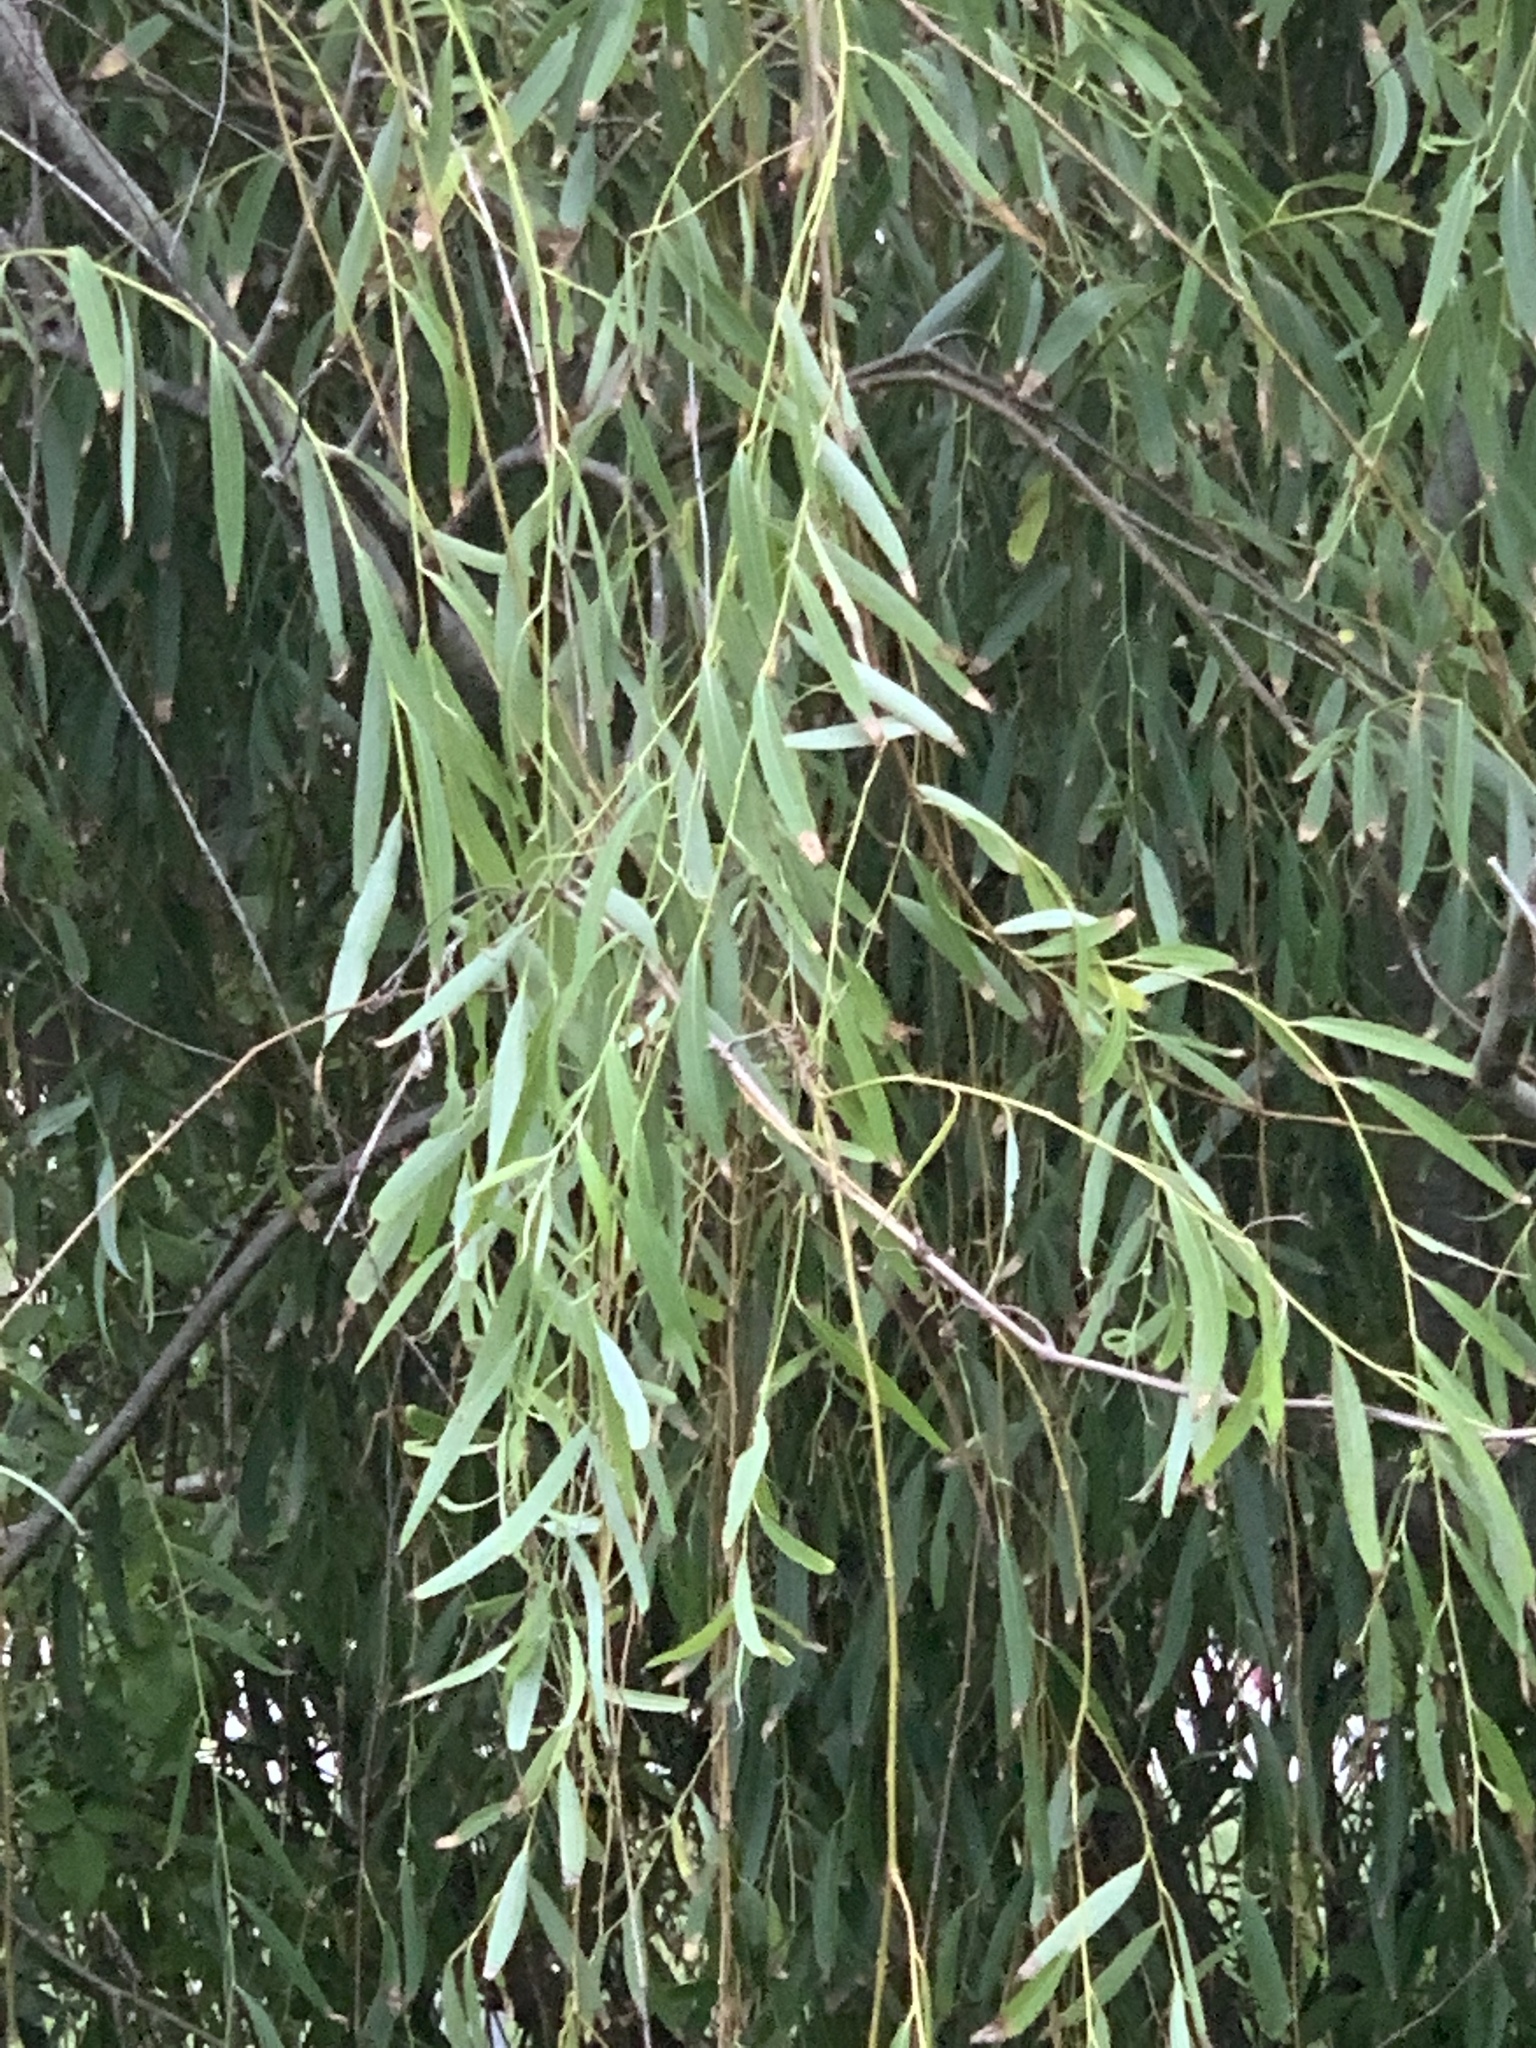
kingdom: Plantae
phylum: Tracheophyta
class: Magnoliopsida
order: Malpighiales
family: Salicaceae
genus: Salix
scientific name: Salix babylonica
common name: Weeping willow
